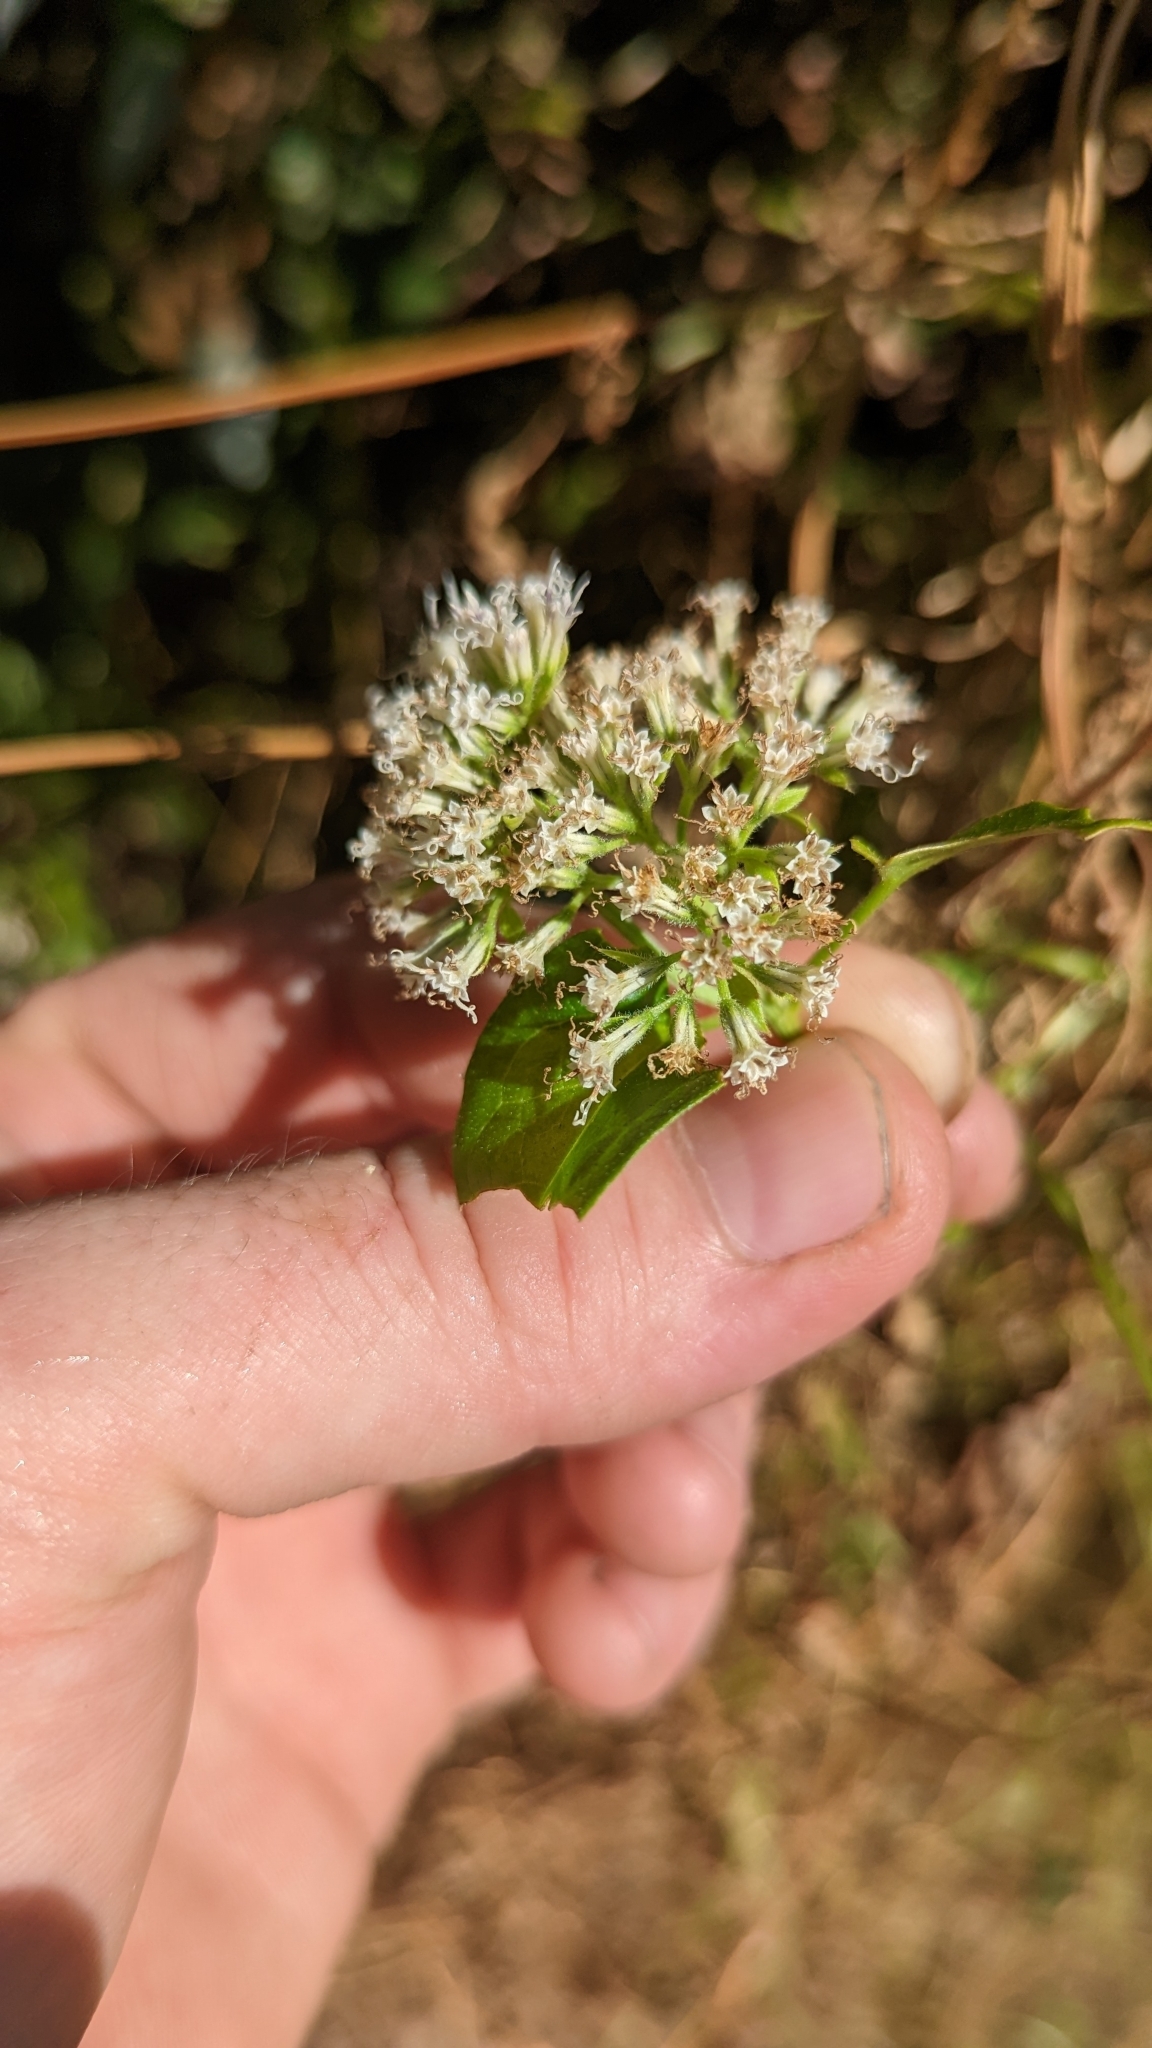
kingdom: Plantae
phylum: Tracheophyta
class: Magnoliopsida
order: Asterales
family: Asteraceae
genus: Mikania
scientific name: Mikania scandens
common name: Climbing hempvine
